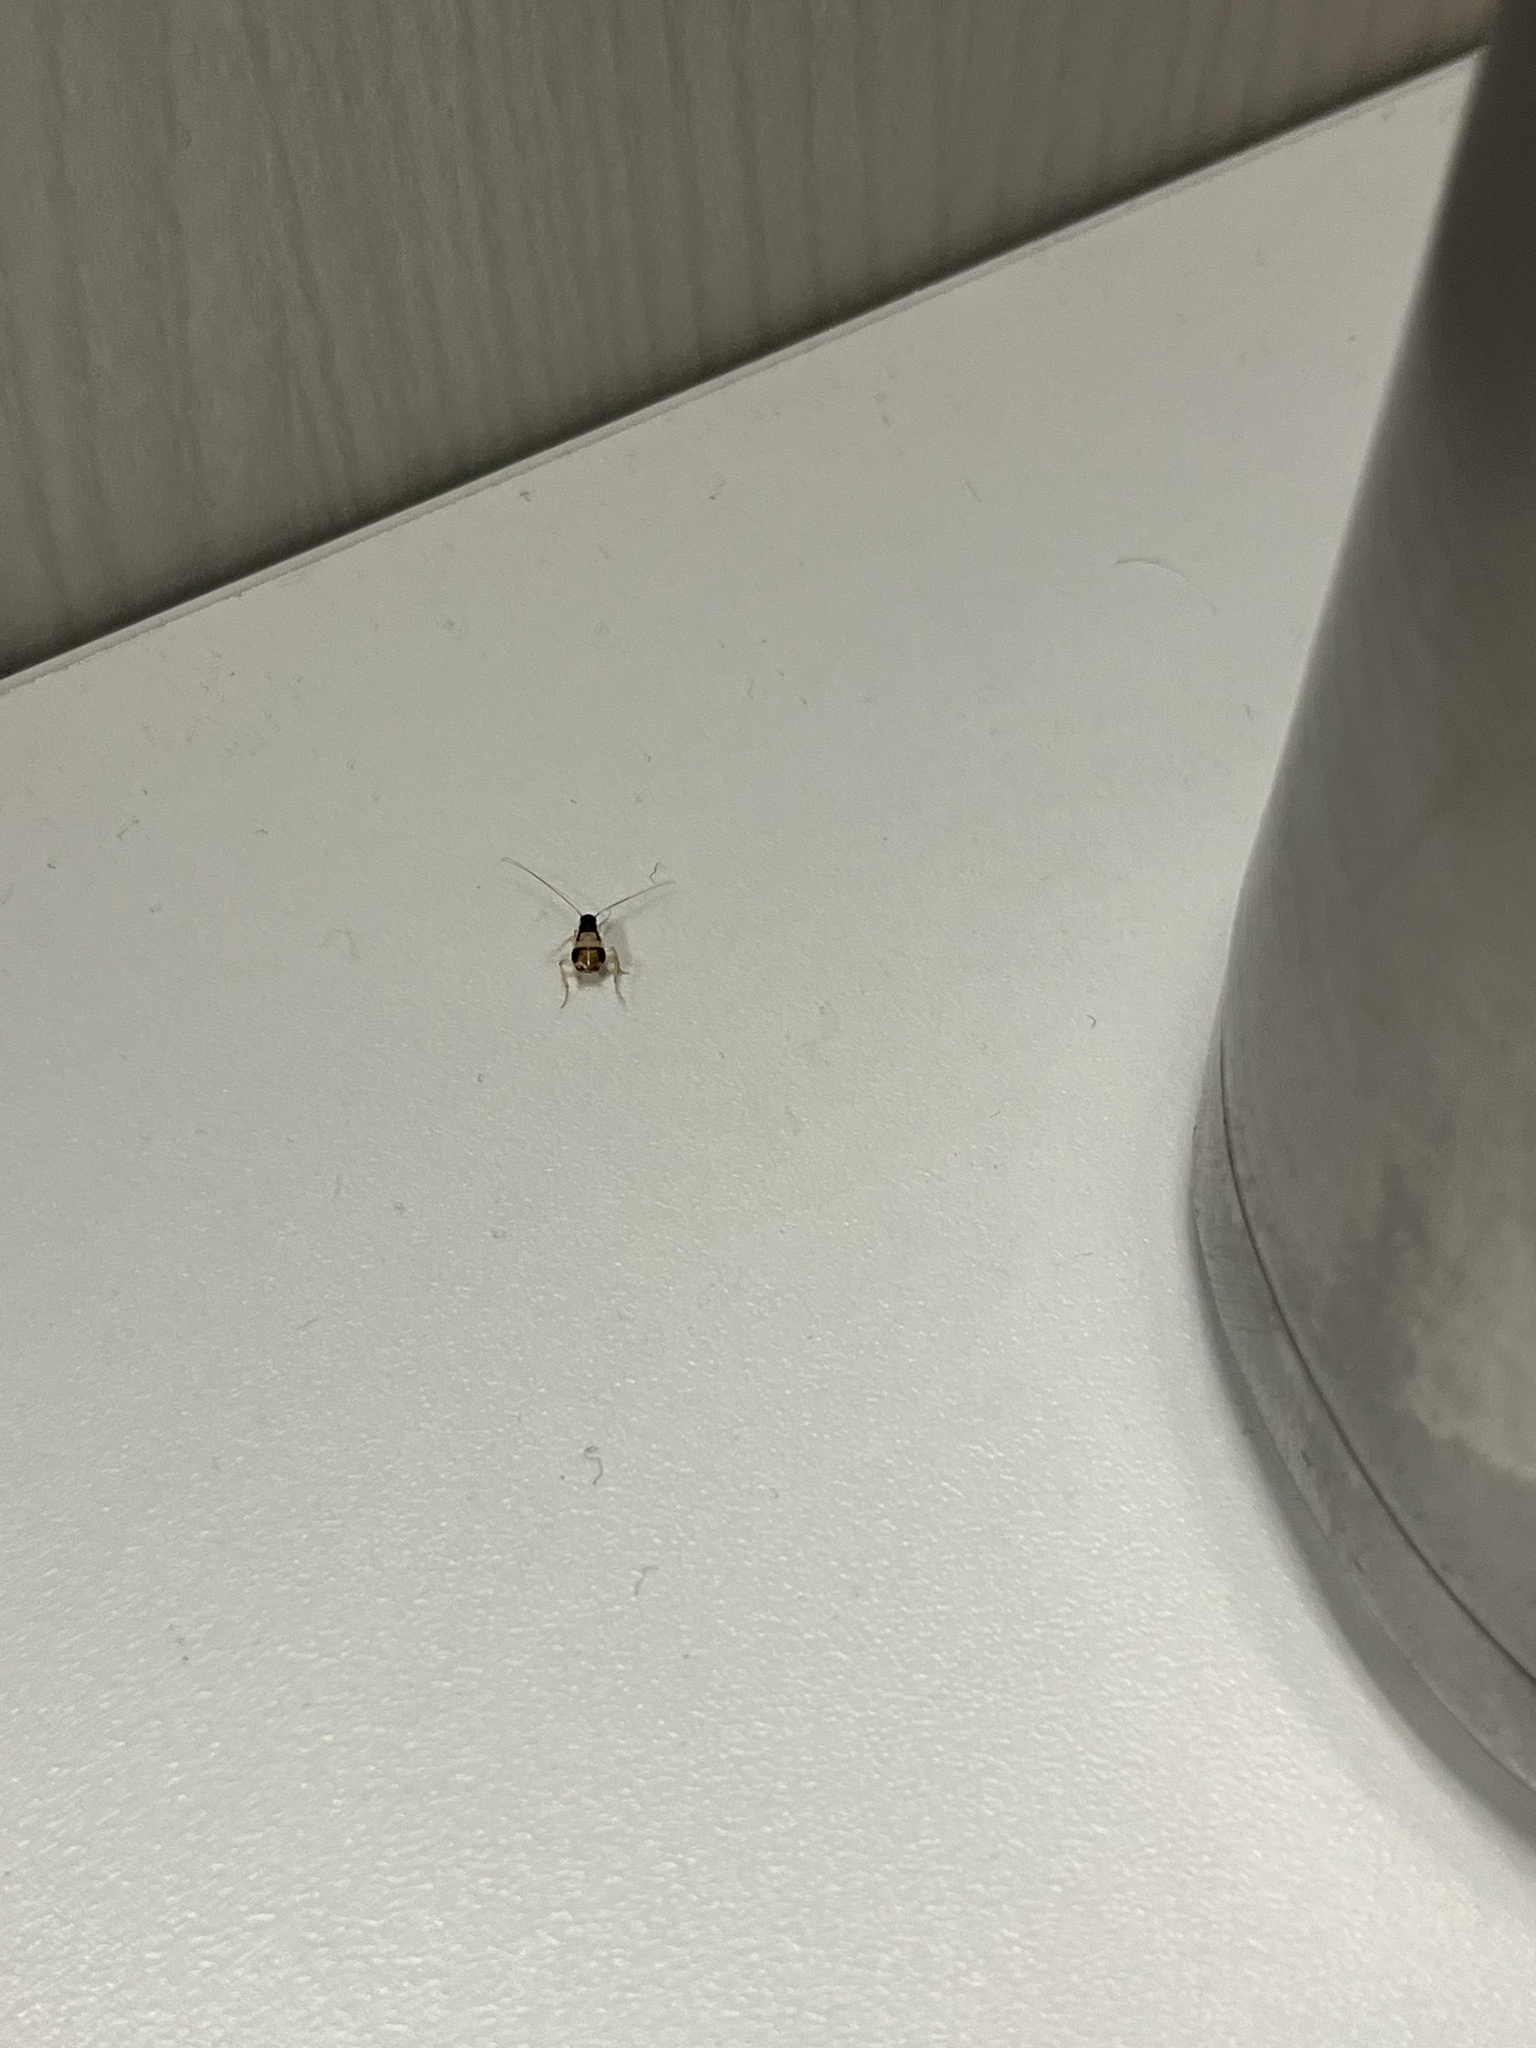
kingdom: Animalia
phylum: Arthropoda
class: Insecta
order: Blattodea
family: Ectobiidae
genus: Supella
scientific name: Supella longipalpa
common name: Brown-banded cockroach
